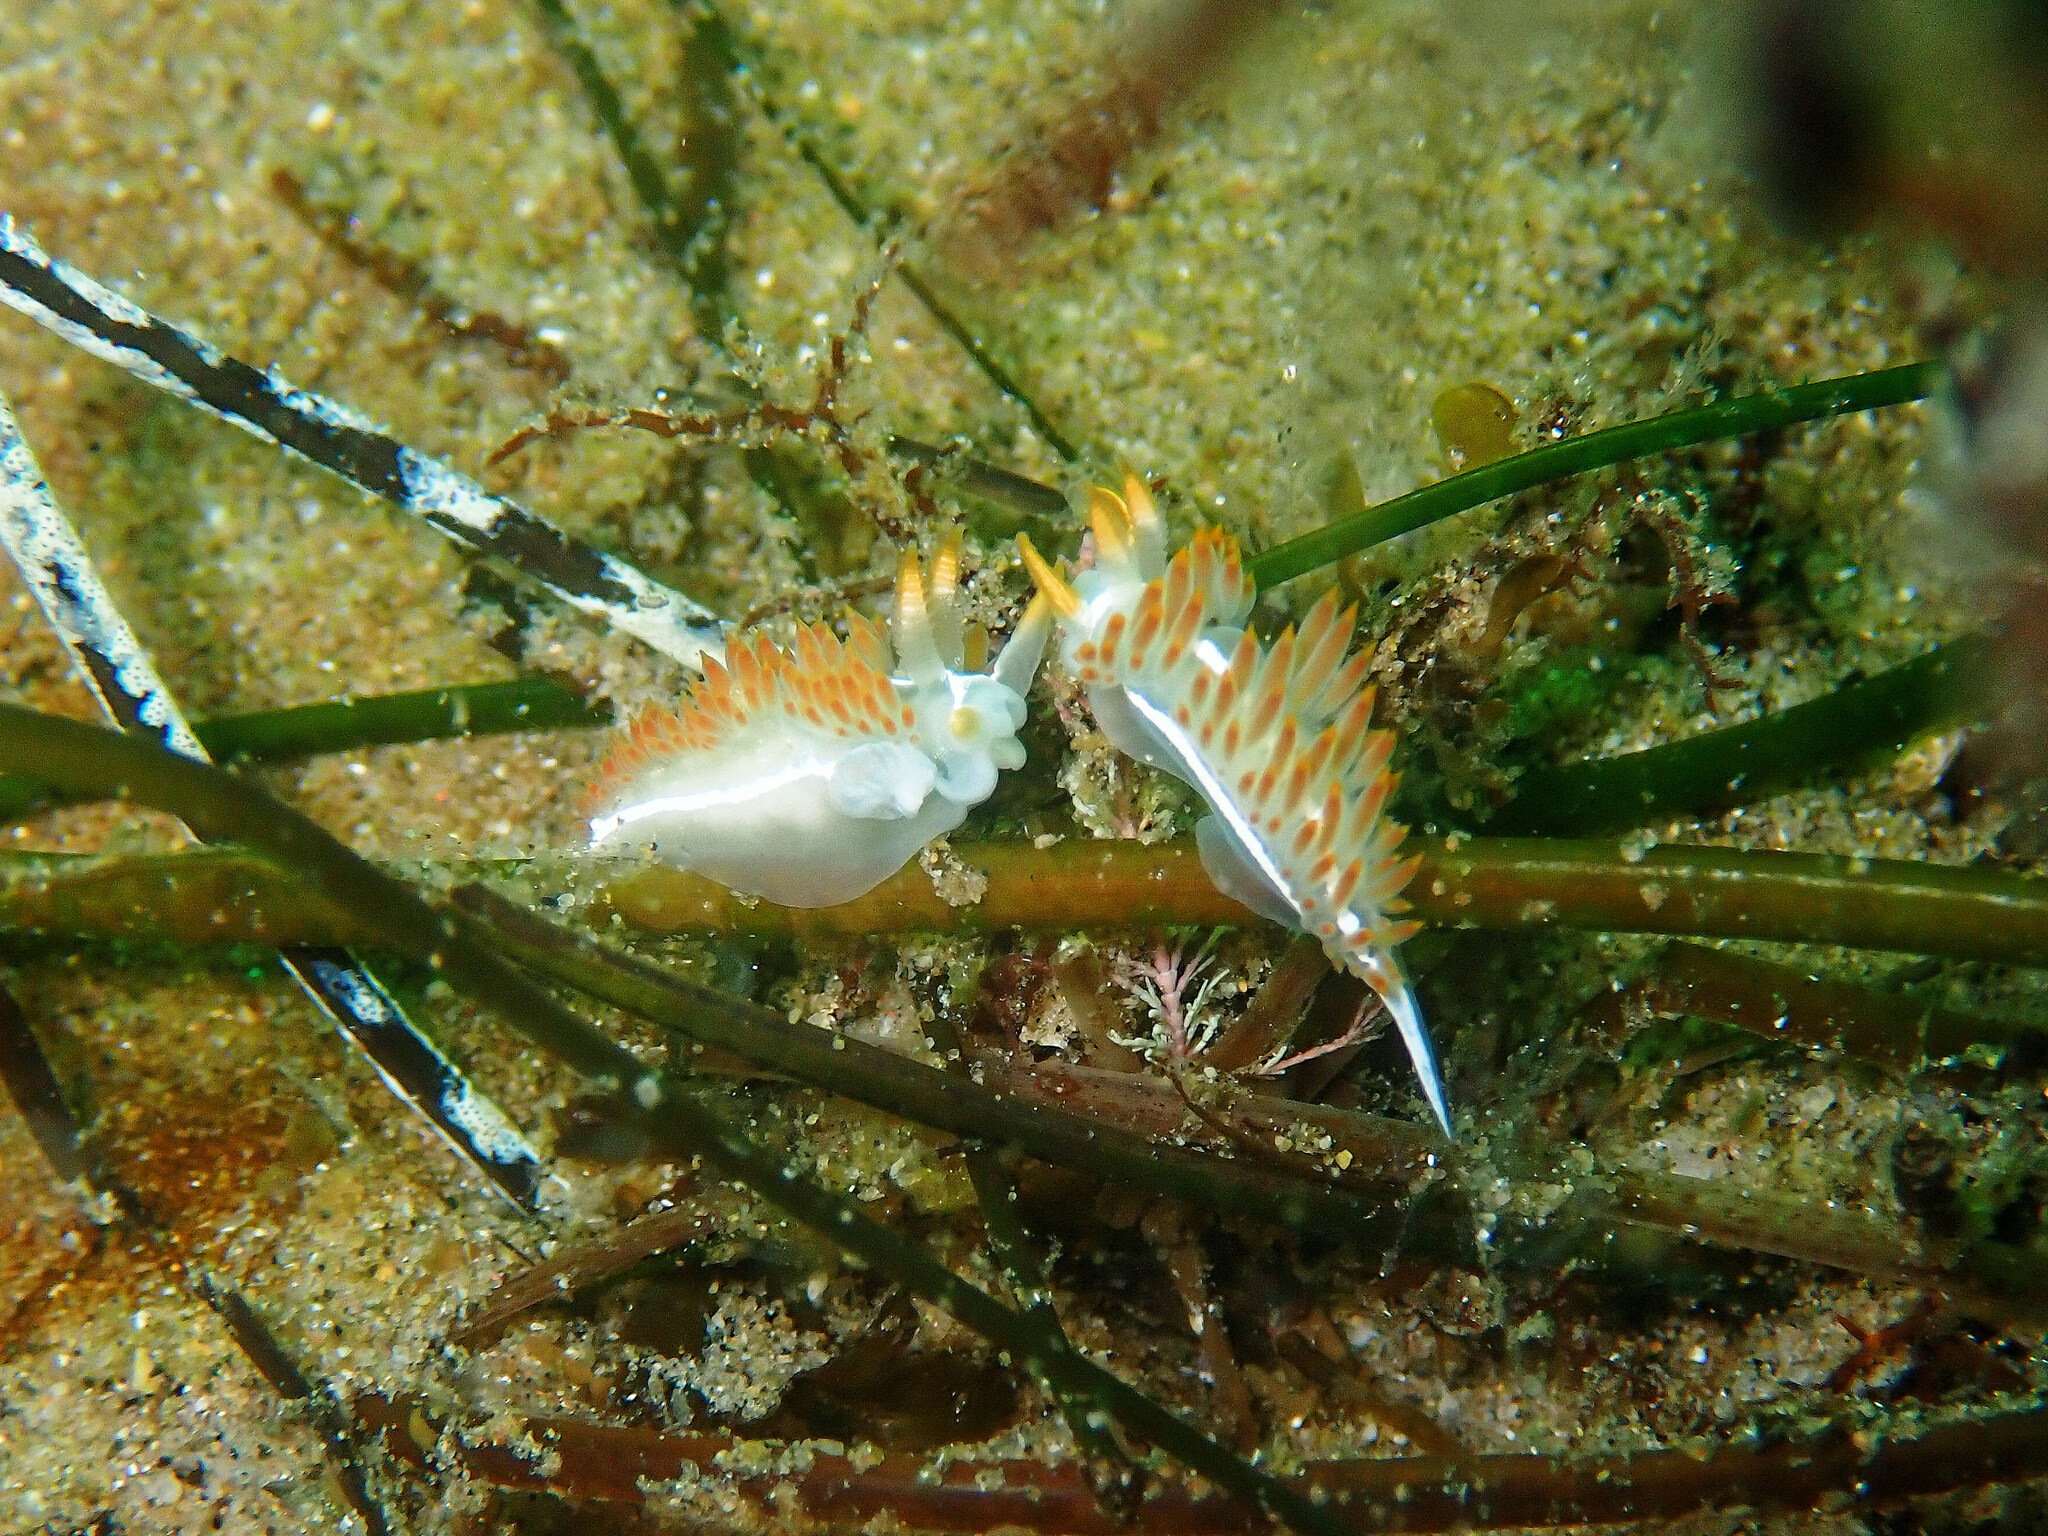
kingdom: Animalia
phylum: Mollusca
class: Gastropoda
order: Nudibranchia
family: Coryphellidae
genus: Coryphella
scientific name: Coryphella trilineata
